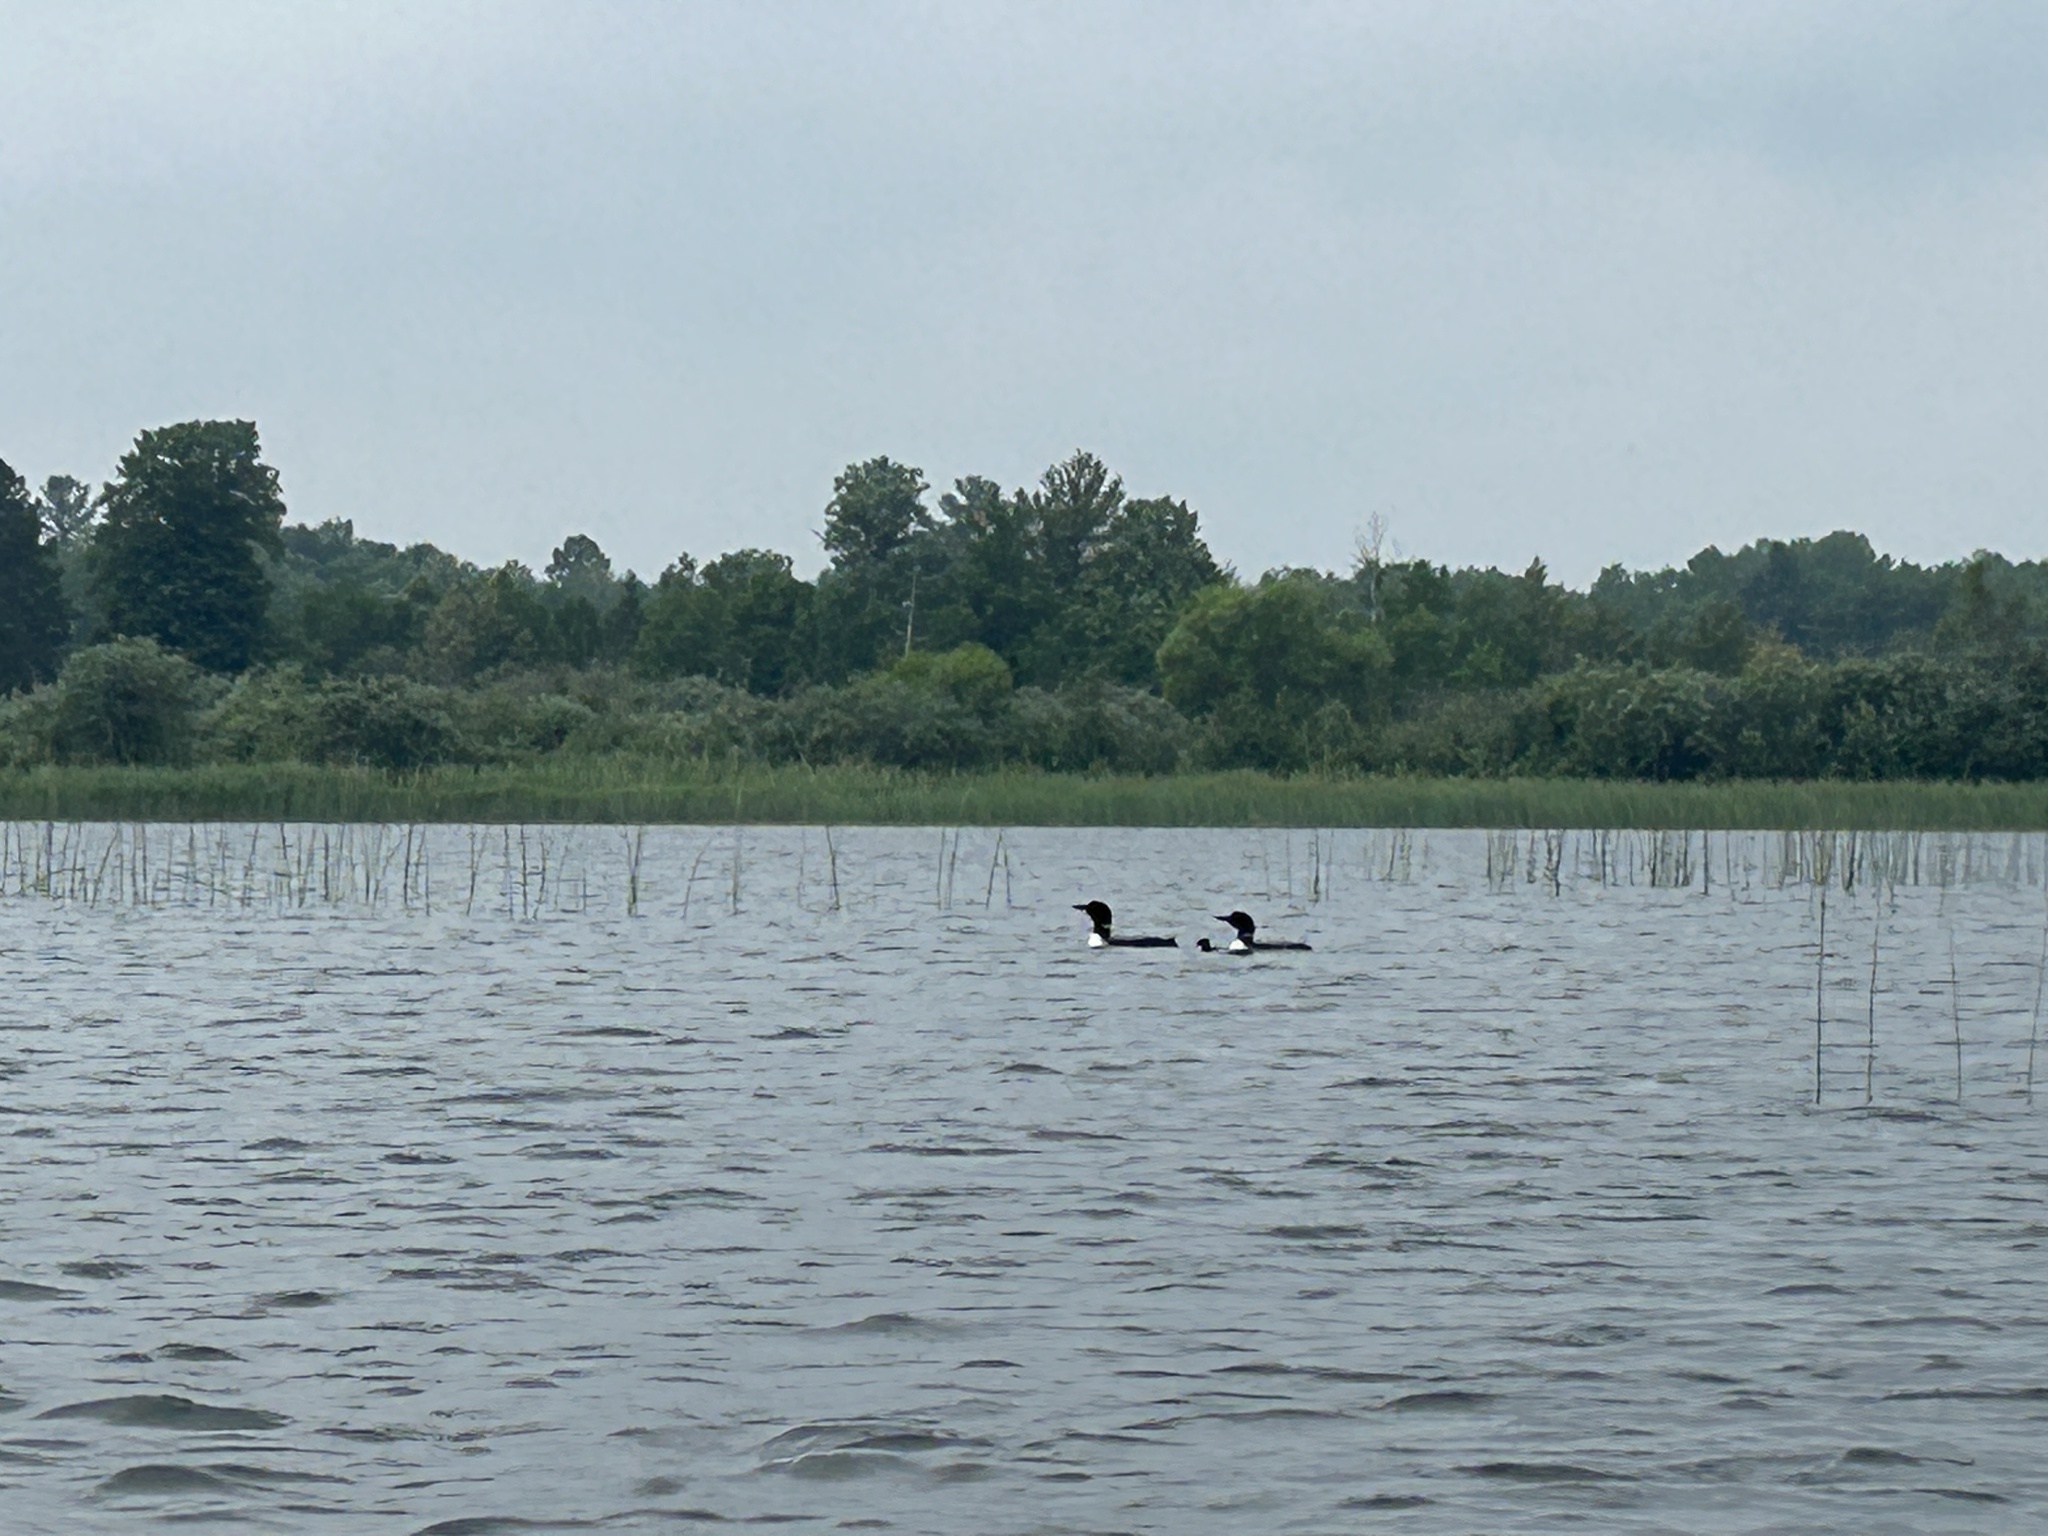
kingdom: Animalia
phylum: Chordata
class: Aves
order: Gaviiformes
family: Gaviidae
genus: Gavia
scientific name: Gavia immer
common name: Common loon
